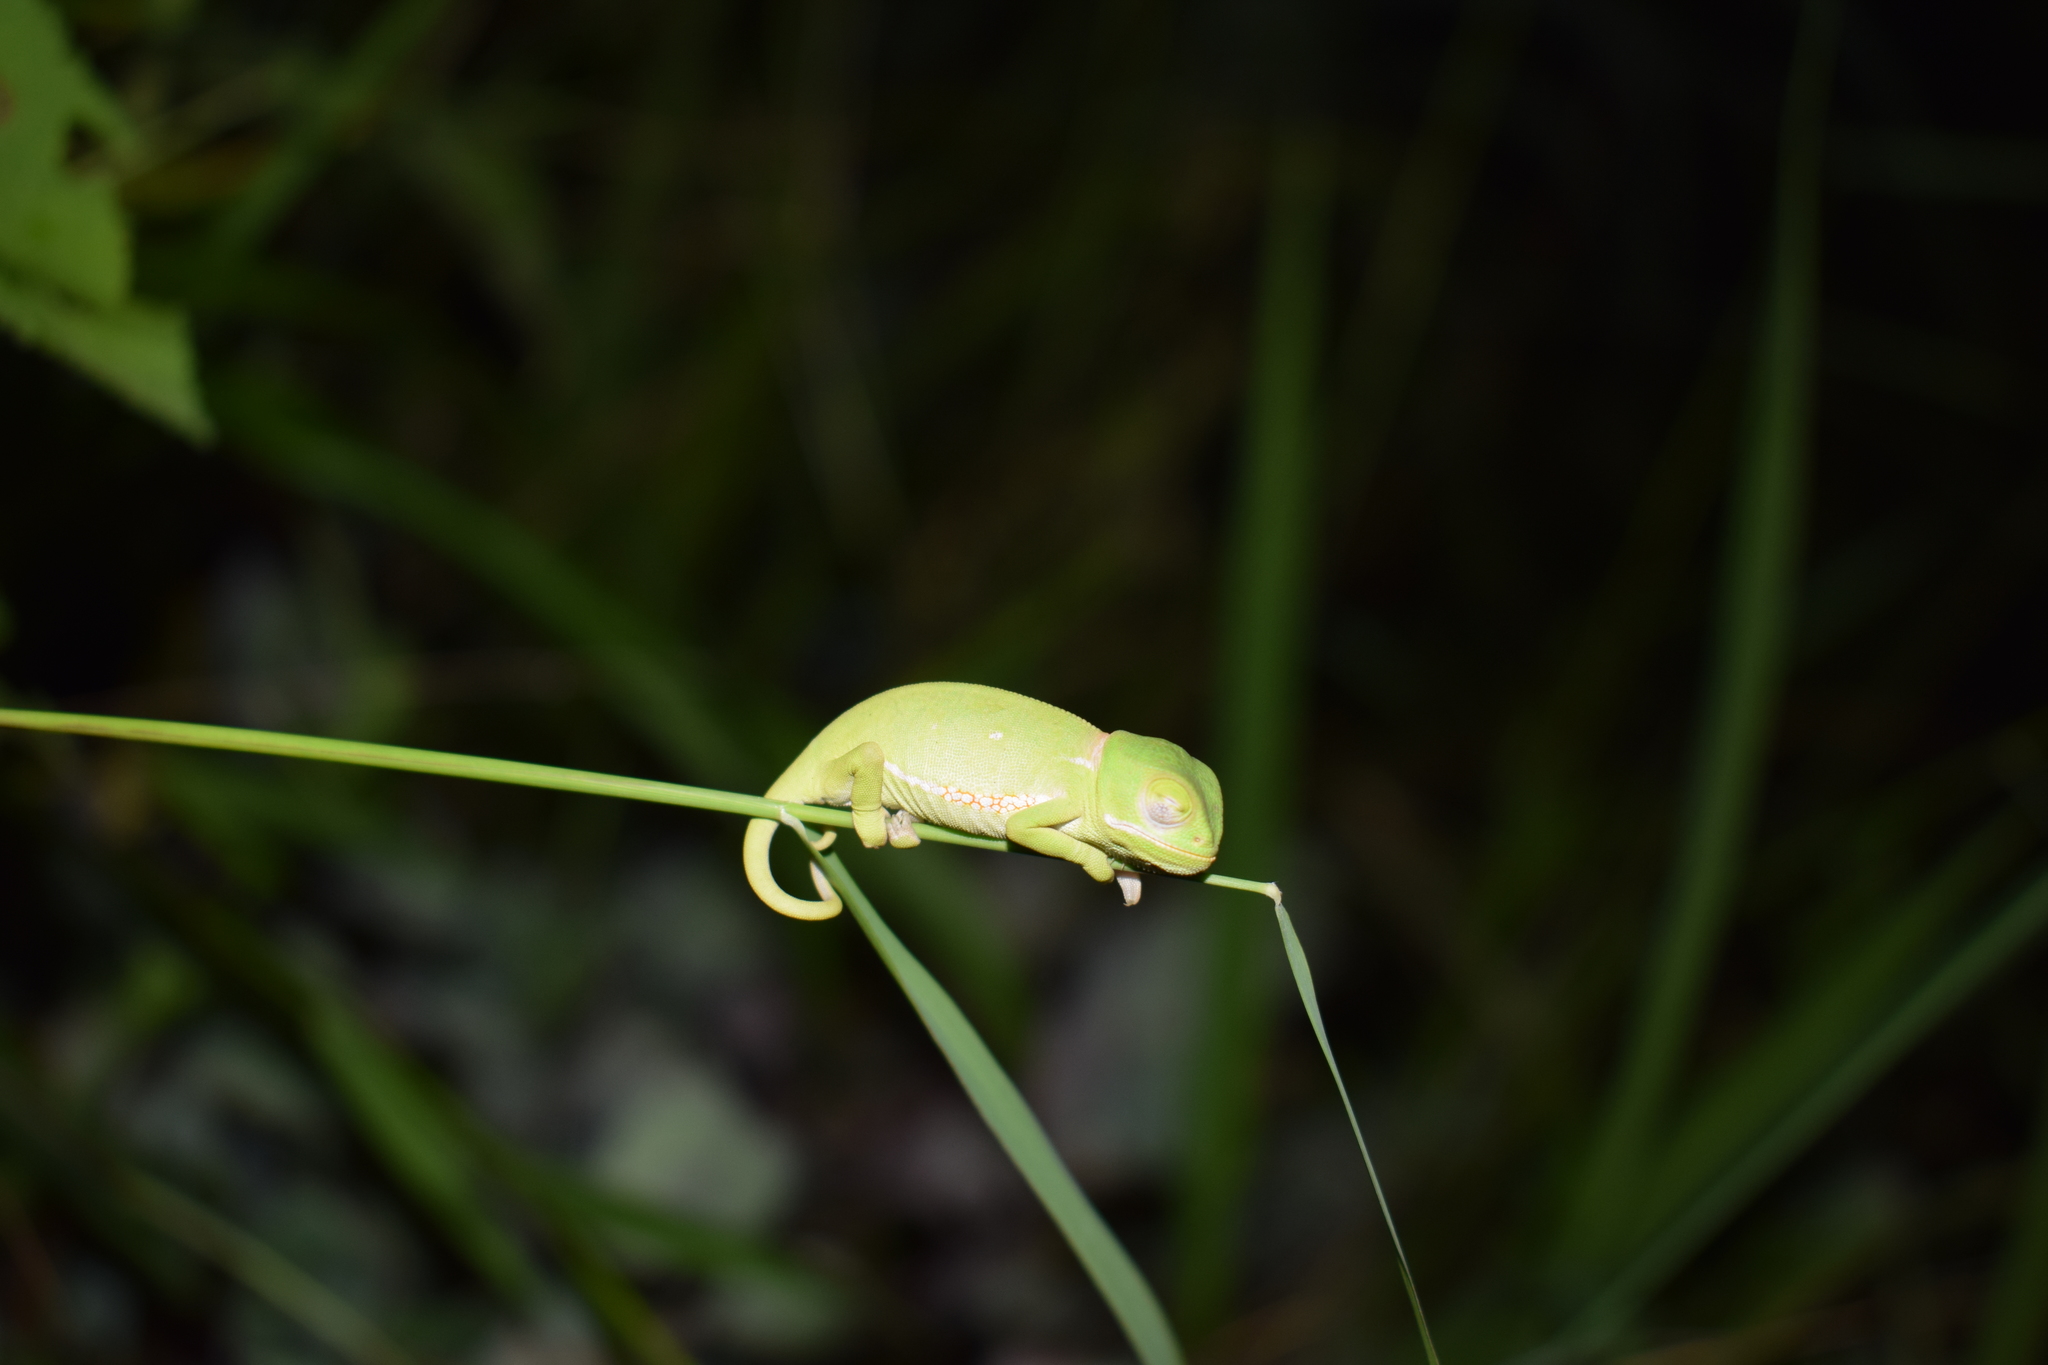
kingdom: Animalia
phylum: Chordata
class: Squamata
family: Chamaeleonidae
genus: Chamaeleo
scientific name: Chamaeleo dilepis
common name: Flapneck chameleon
